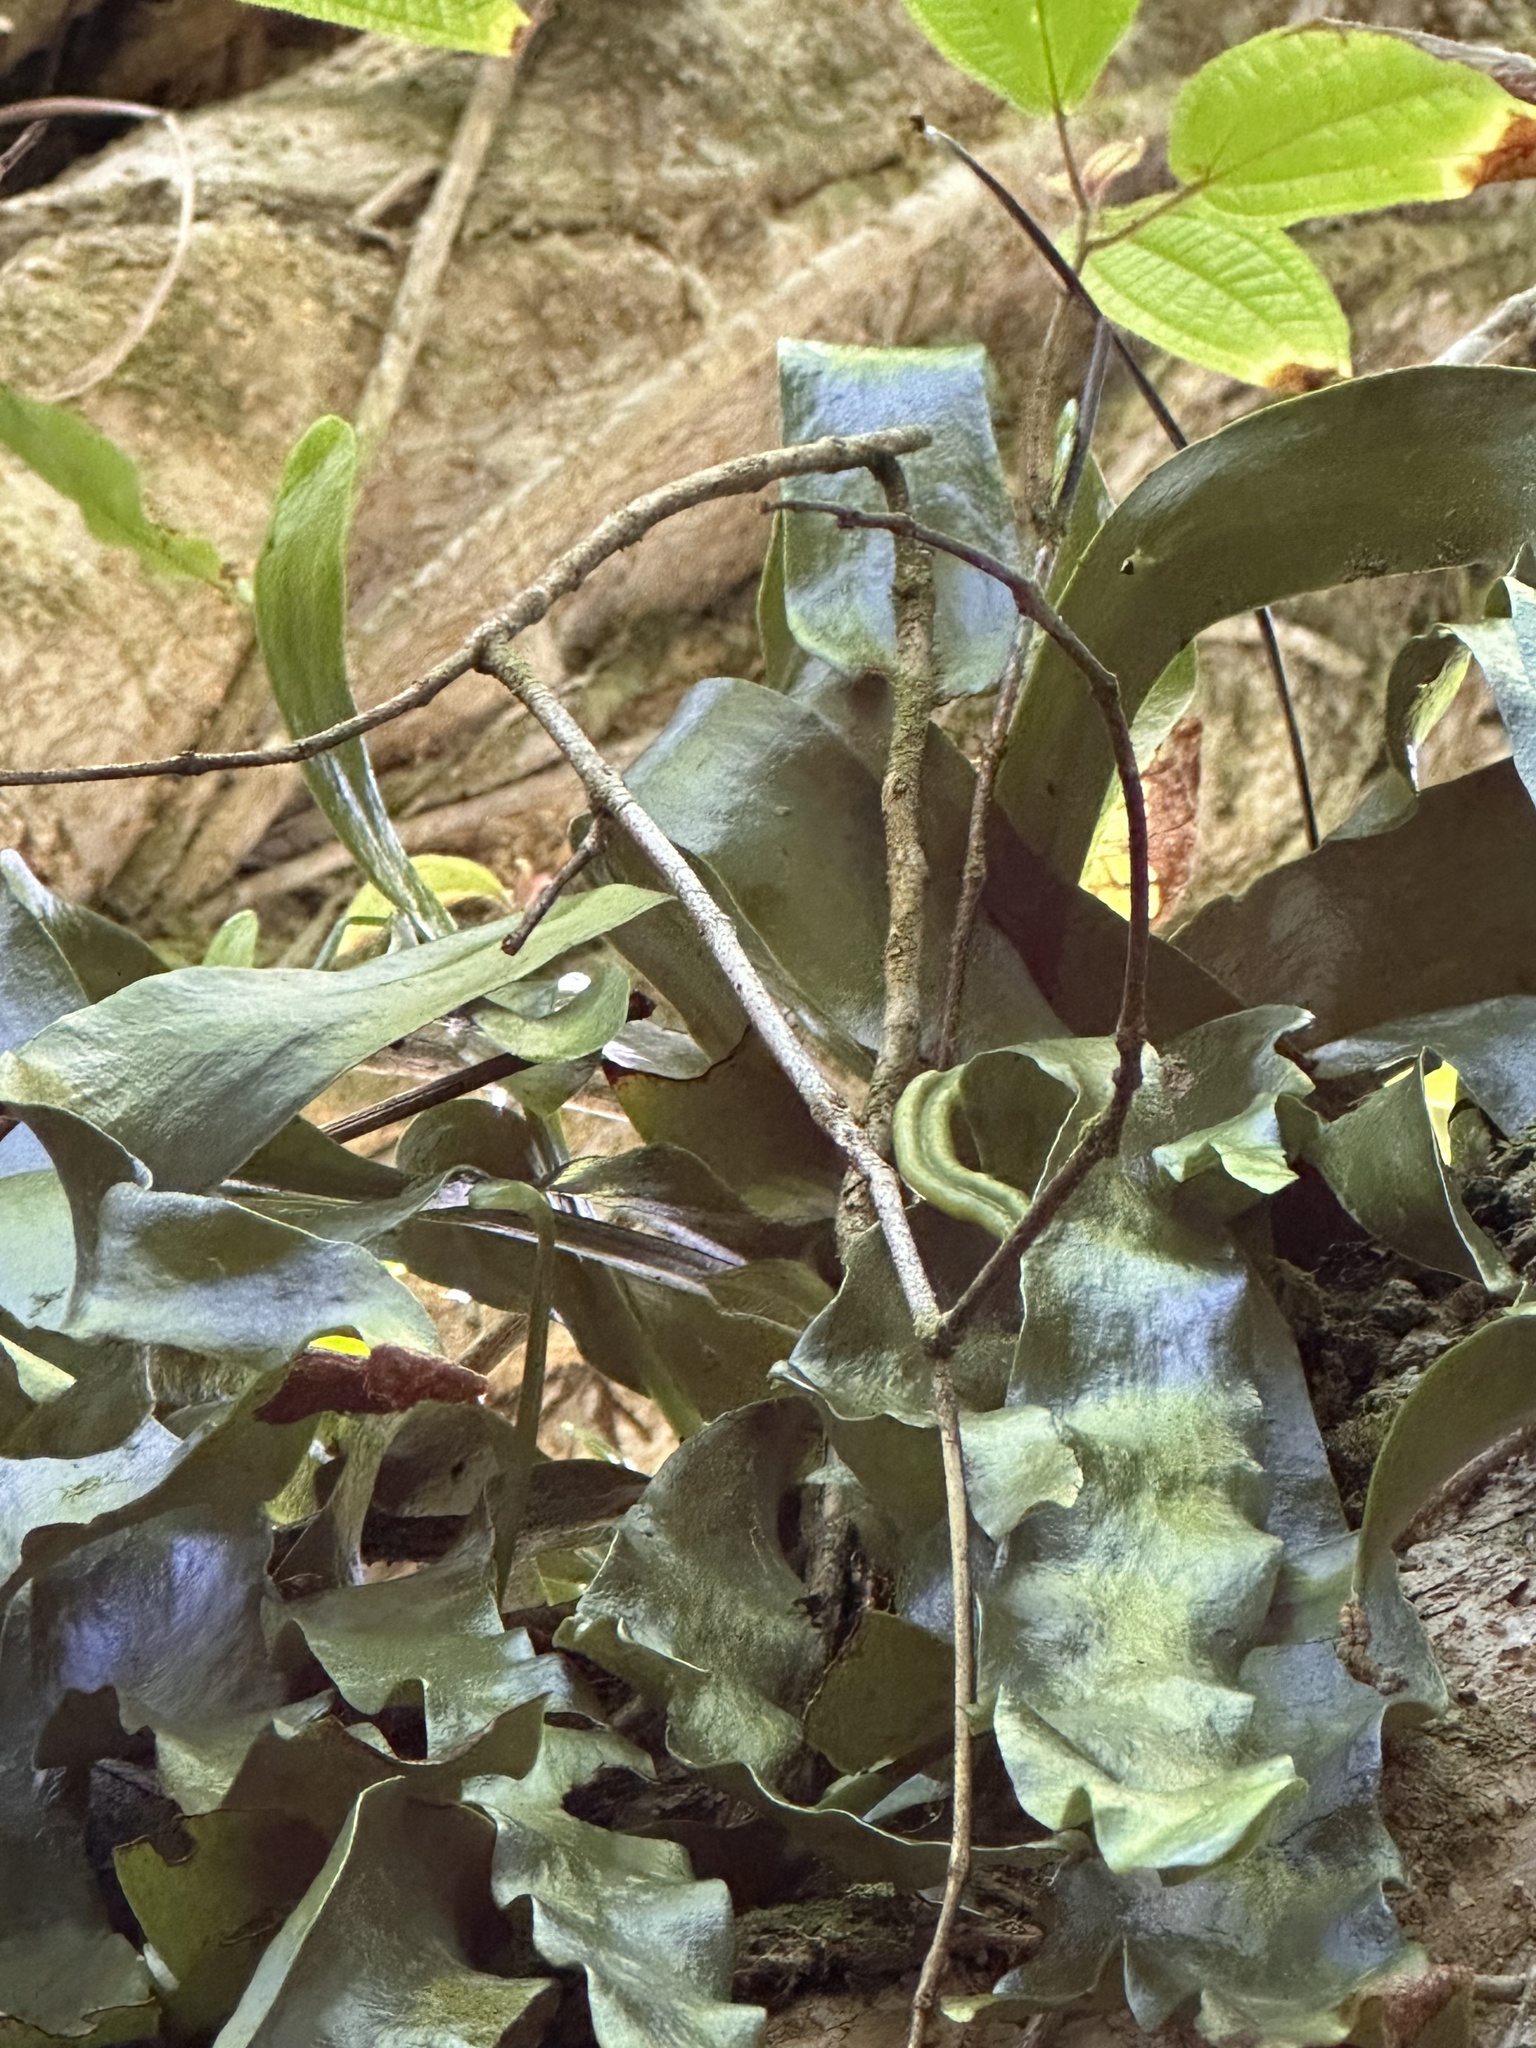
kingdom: Plantae
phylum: Tracheophyta
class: Polypodiopsida
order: Ophioglossales
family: Ophioglossaceae
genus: Ophioderma
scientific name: Ophioderma pendulum
